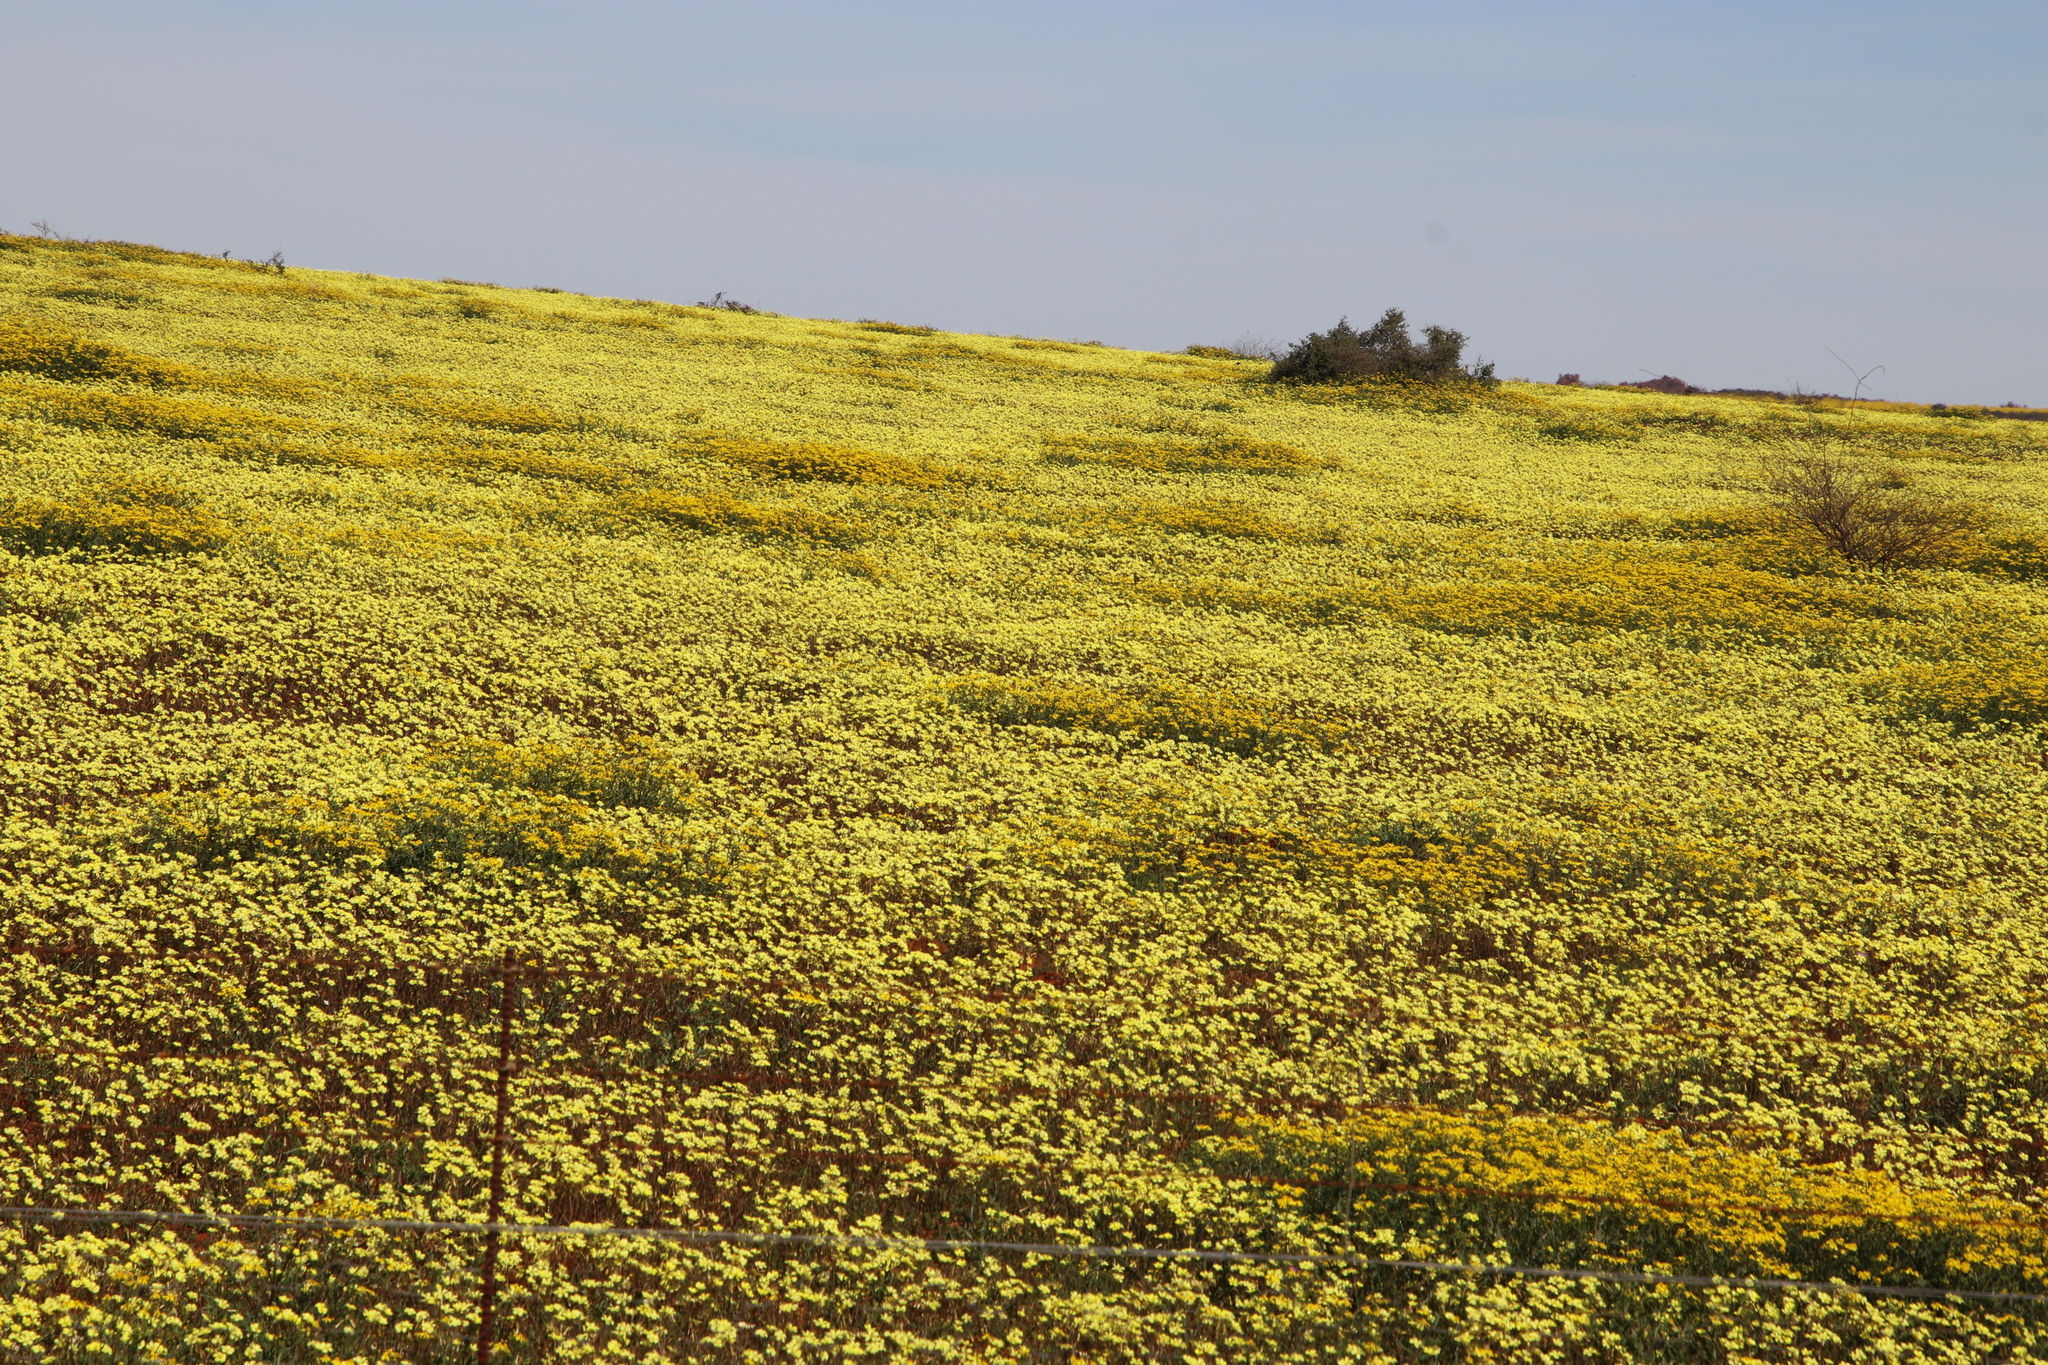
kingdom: Plantae
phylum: Tracheophyta
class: Magnoliopsida
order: Oxalidales
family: Oxalidaceae
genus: Oxalis
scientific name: Oxalis pes-caprae
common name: Bermuda-buttercup
